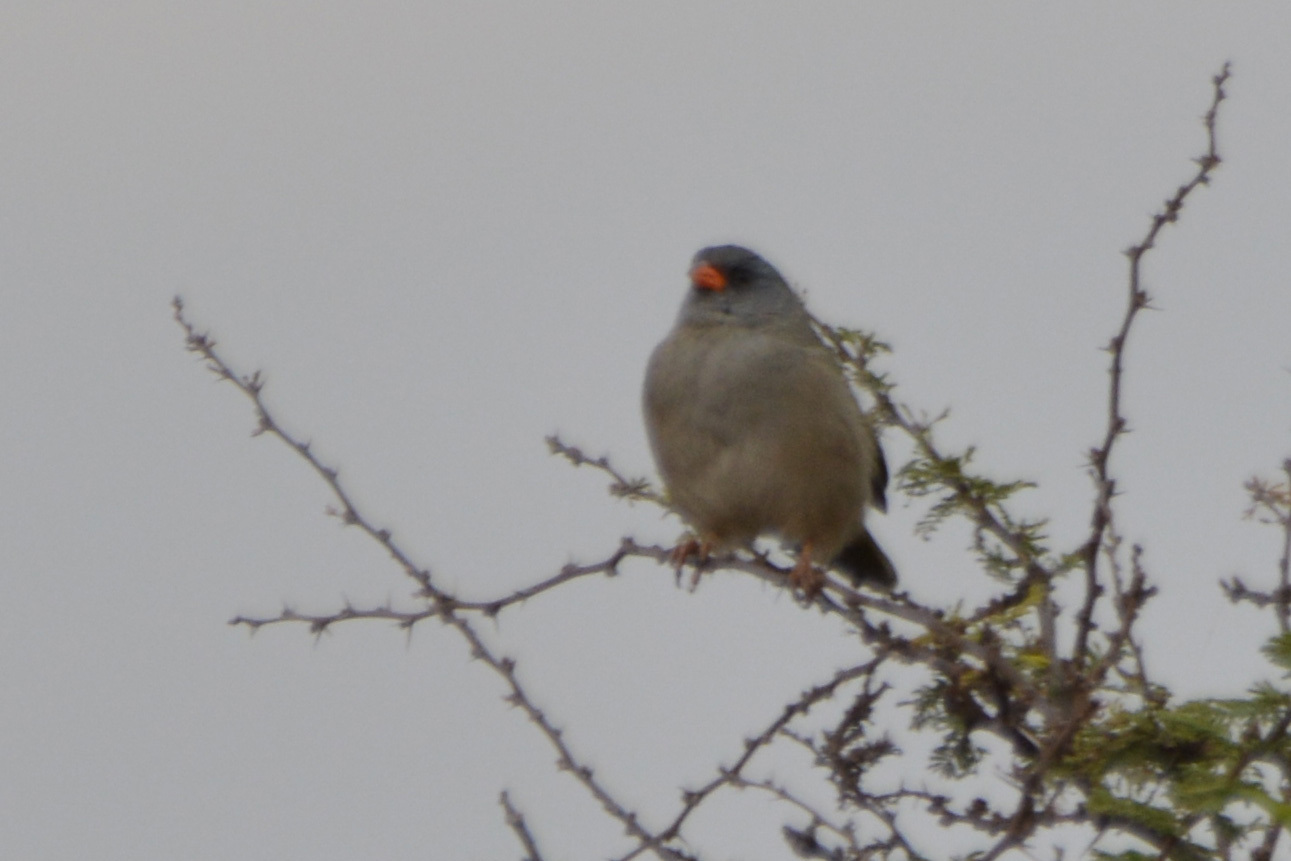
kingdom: Animalia
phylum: Chordata
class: Aves
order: Passeriformes
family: Thraupidae
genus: Embernagra
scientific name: Embernagra platensis
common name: Pampa finch
